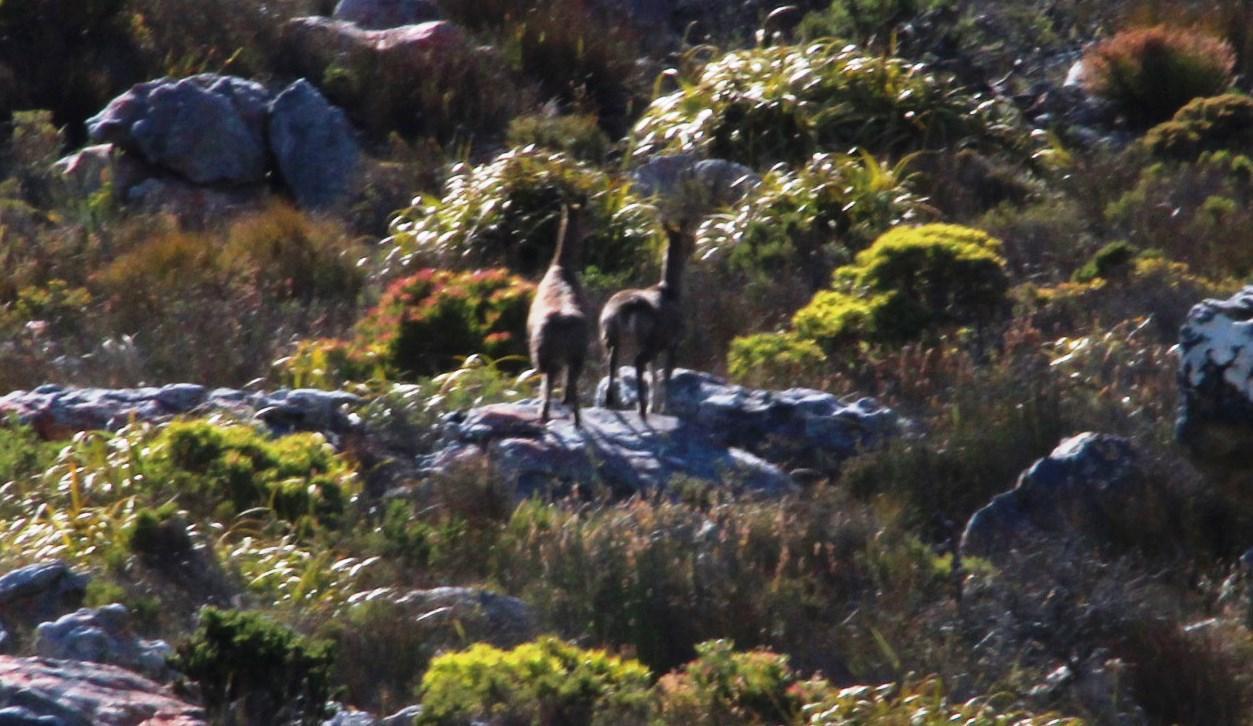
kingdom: Animalia
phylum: Chordata
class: Mammalia
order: Artiodactyla
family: Bovidae
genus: Oreotragus
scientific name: Oreotragus oreotragus
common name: Klipspringer
